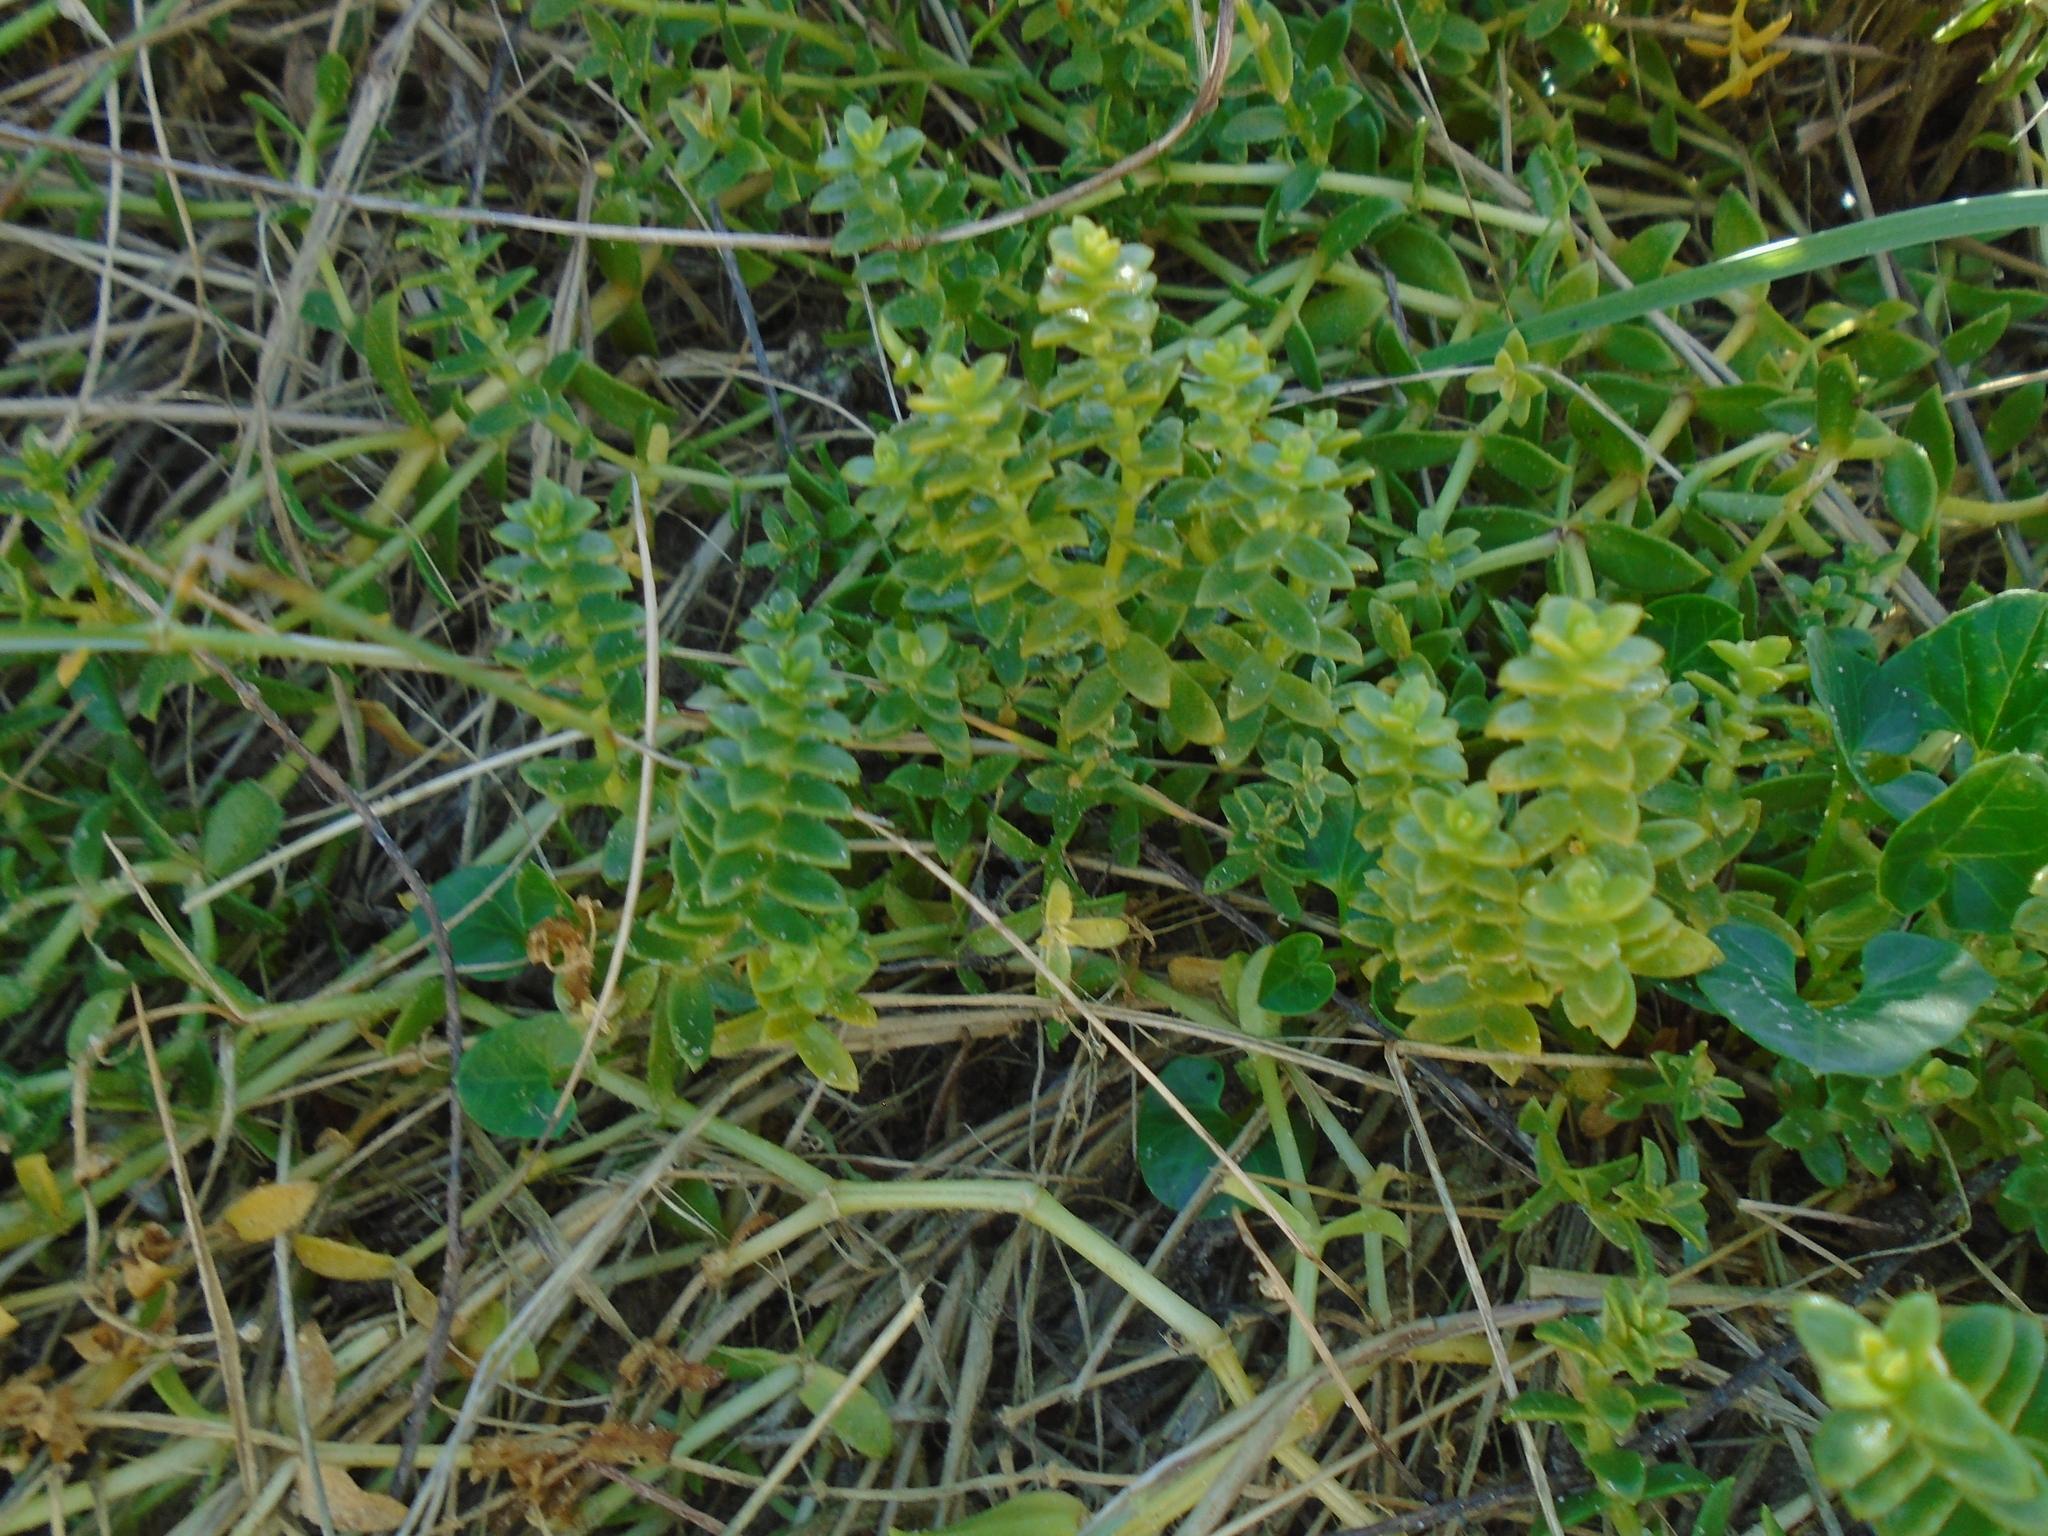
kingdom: Plantae
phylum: Tracheophyta
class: Magnoliopsida
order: Caryophyllales
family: Caryophyllaceae
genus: Honckenya
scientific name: Honckenya peploides
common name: Sea sandwort
